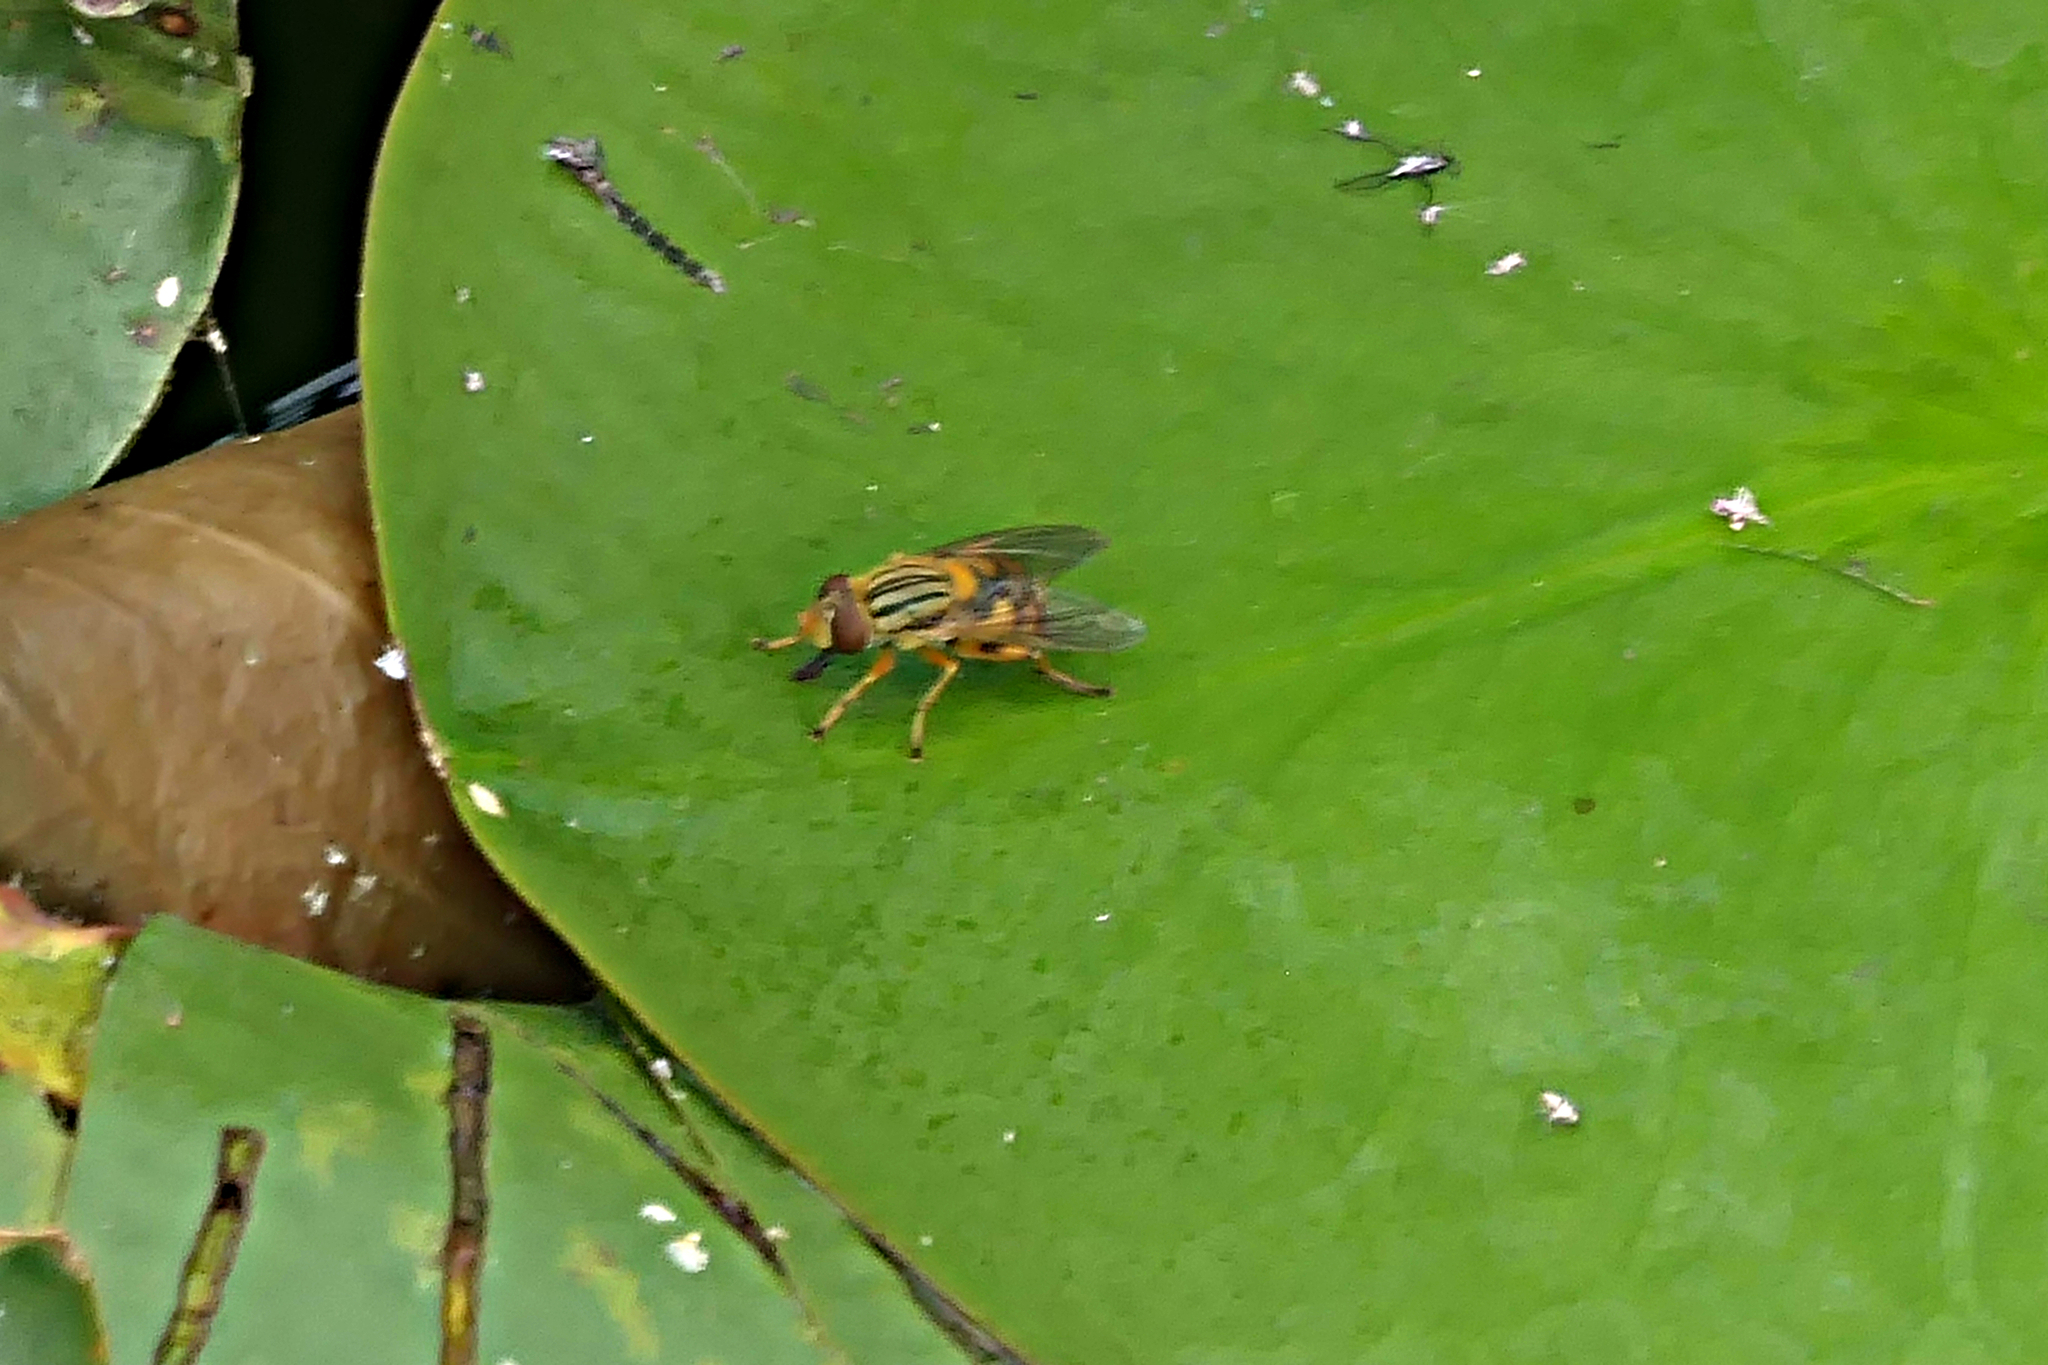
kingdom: Animalia
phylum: Arthropoda
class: Insecta
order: Diptera
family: Syrphidae
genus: Parhelophilus
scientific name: Parhelophilus divisus
